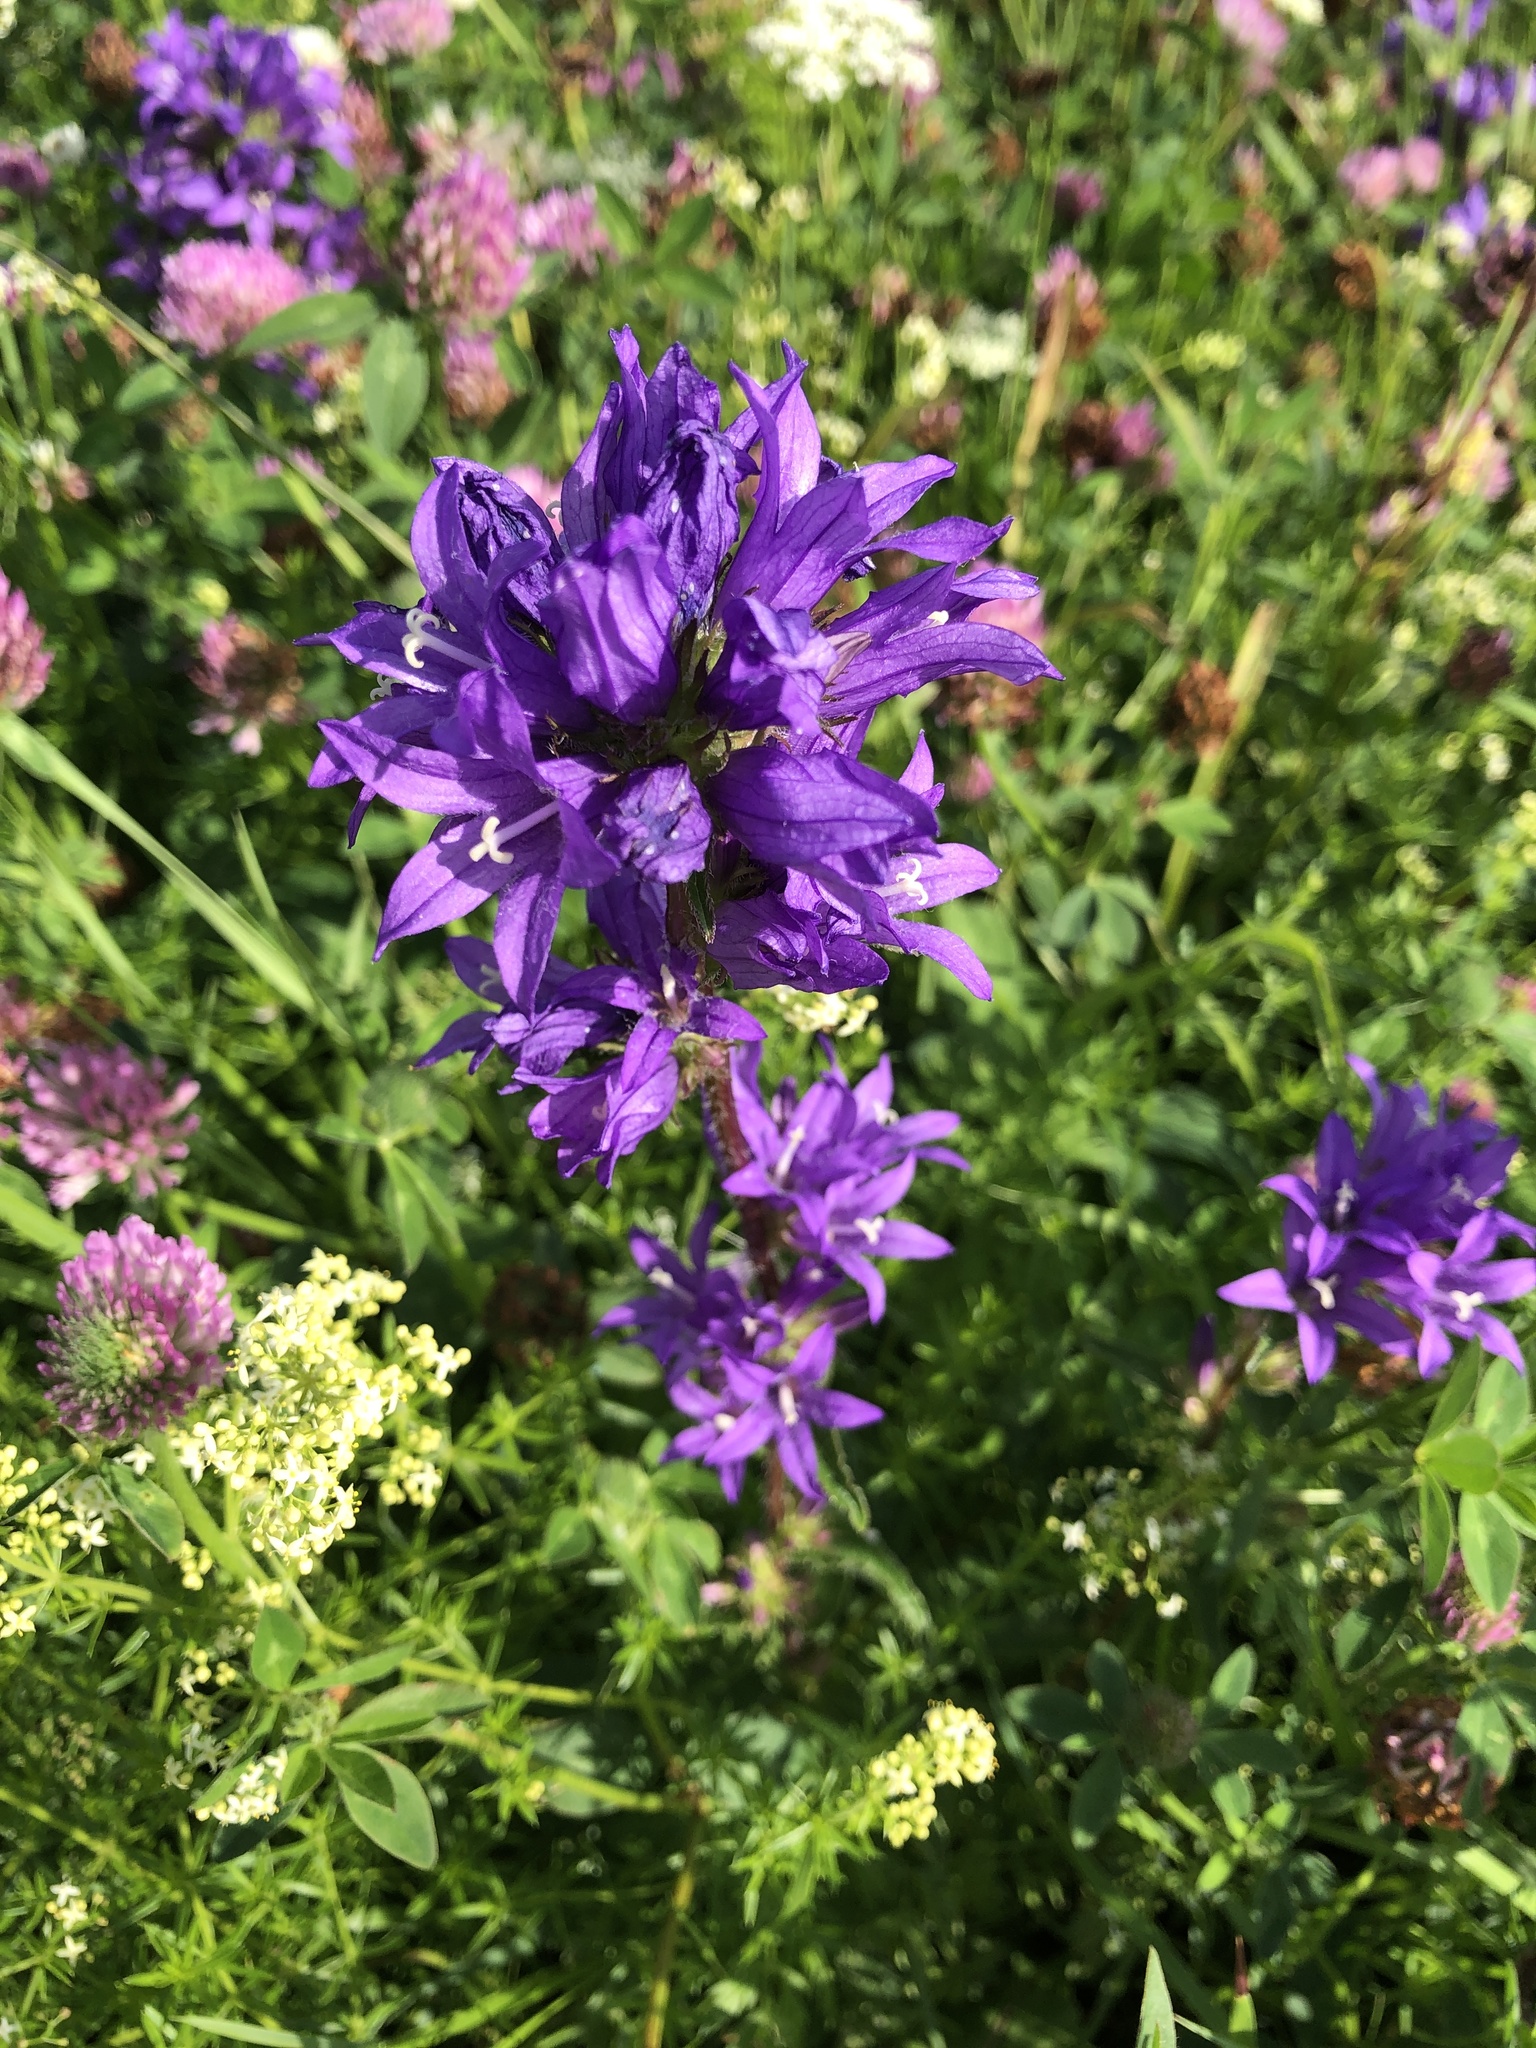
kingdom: Plantae
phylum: Tracheophyta
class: Magnoliopsida
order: Asterales
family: Campanulaceae
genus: Campanula
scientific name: Campanula glomerata
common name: Clustered bellflower
